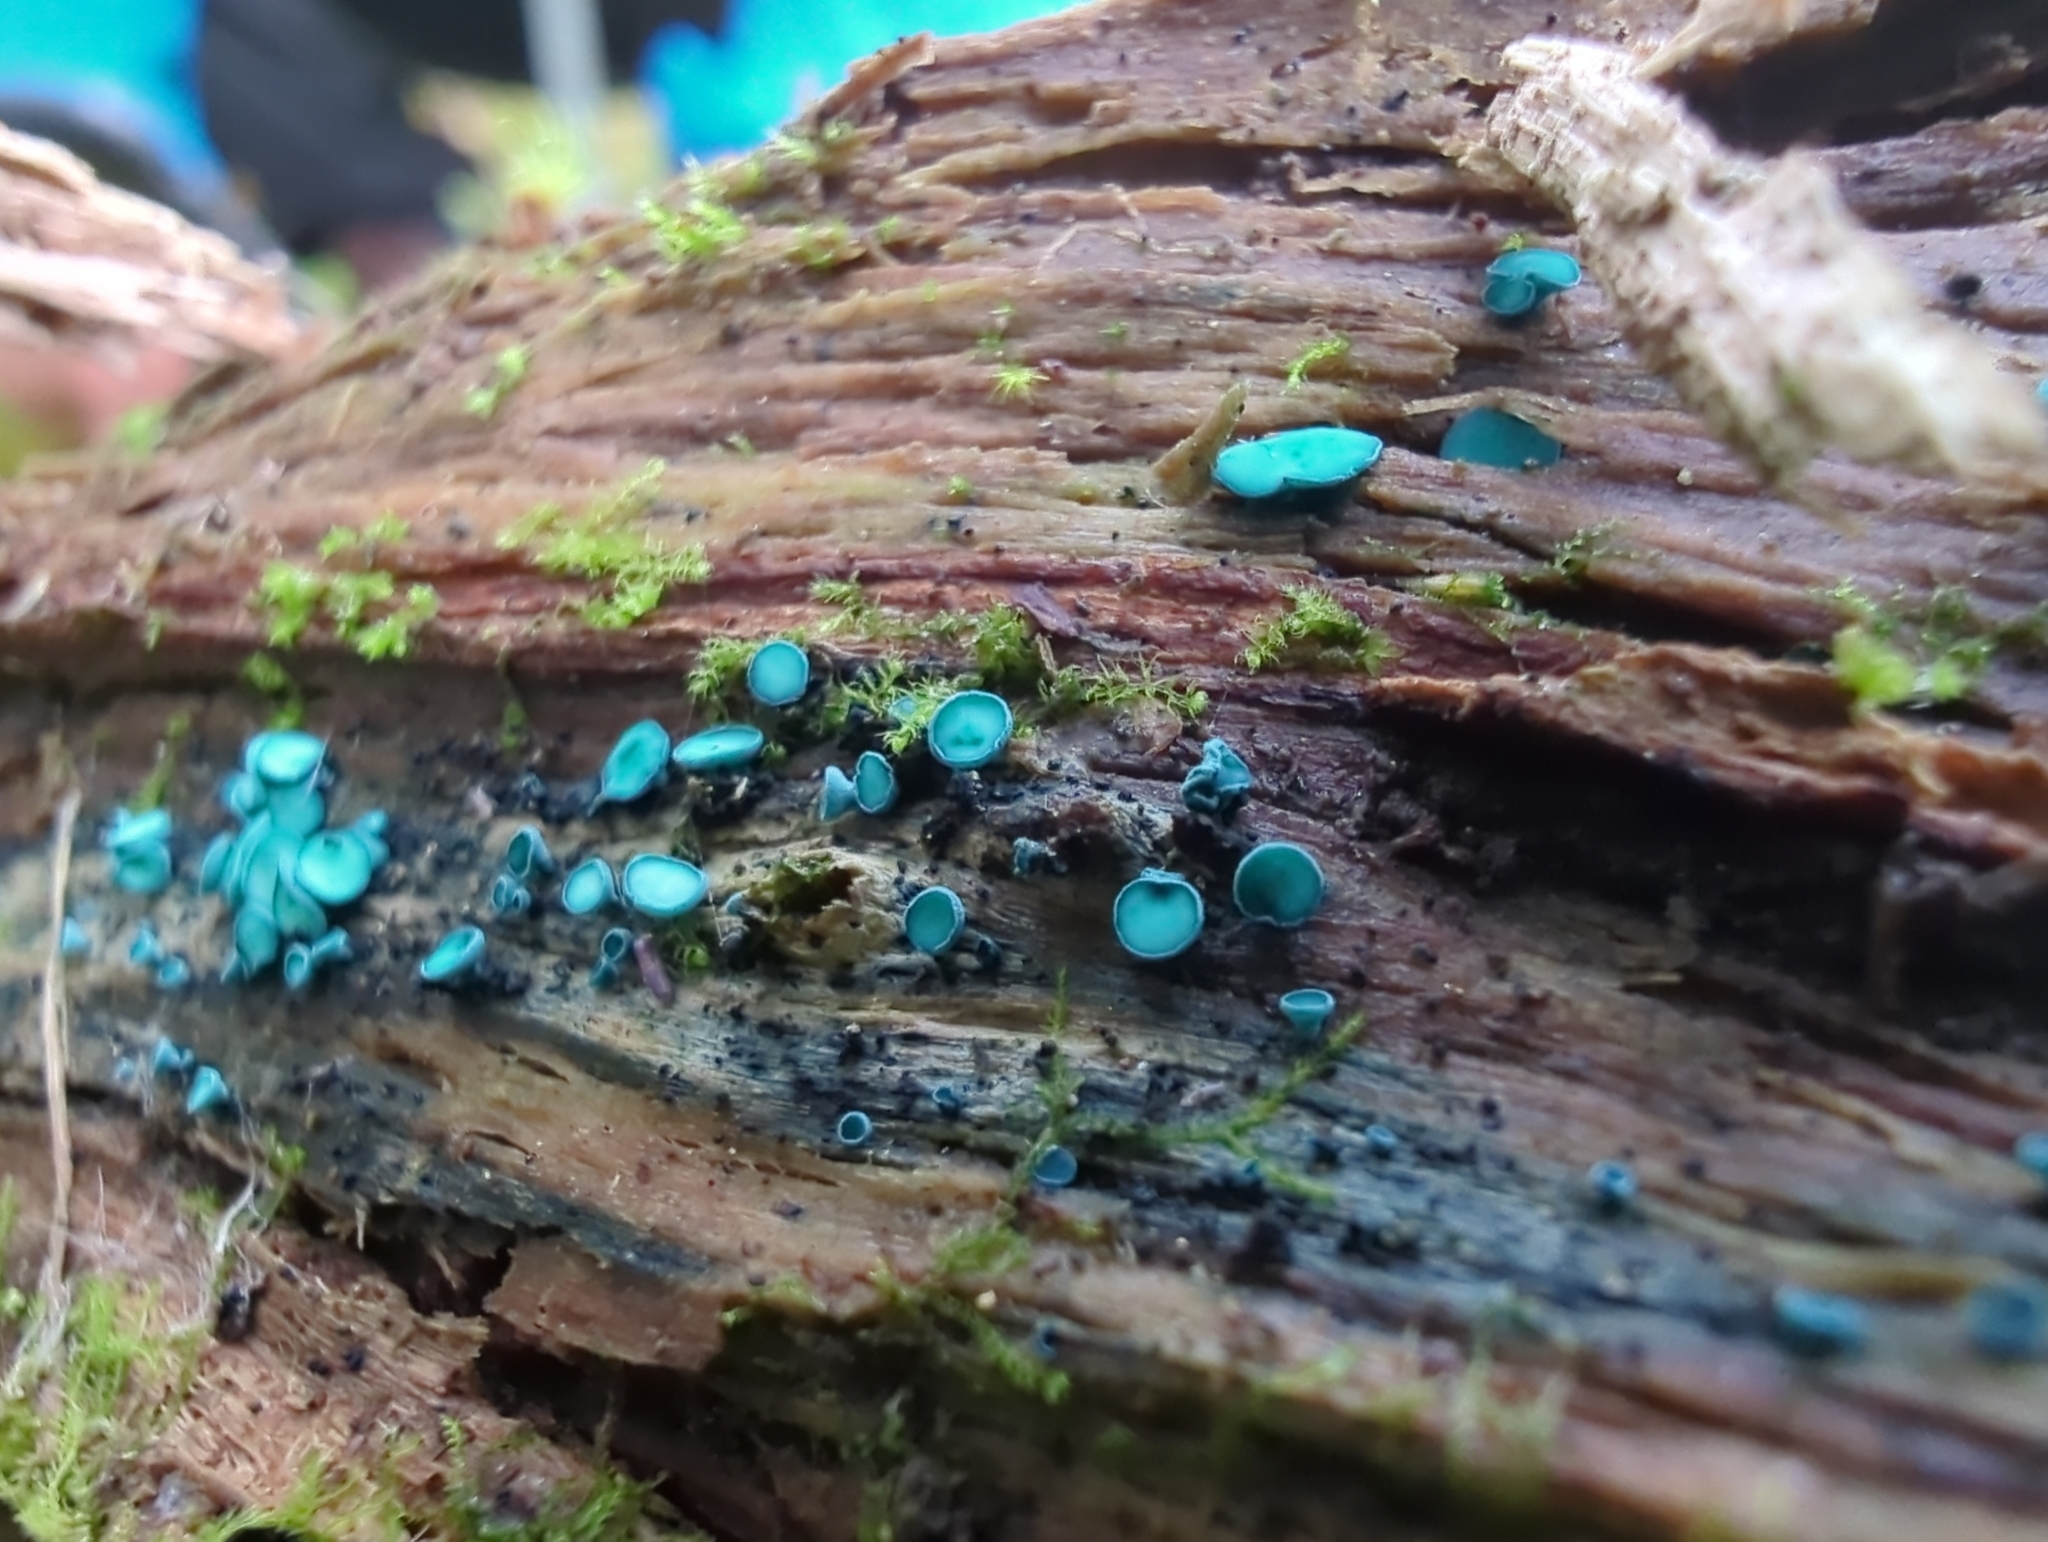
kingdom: Fungi
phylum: Ascomycota
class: Leotiomycetes
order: Helotiales
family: Chlorociboriaceae
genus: Chlorociboria
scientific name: Chlorociboria aeruginosa
